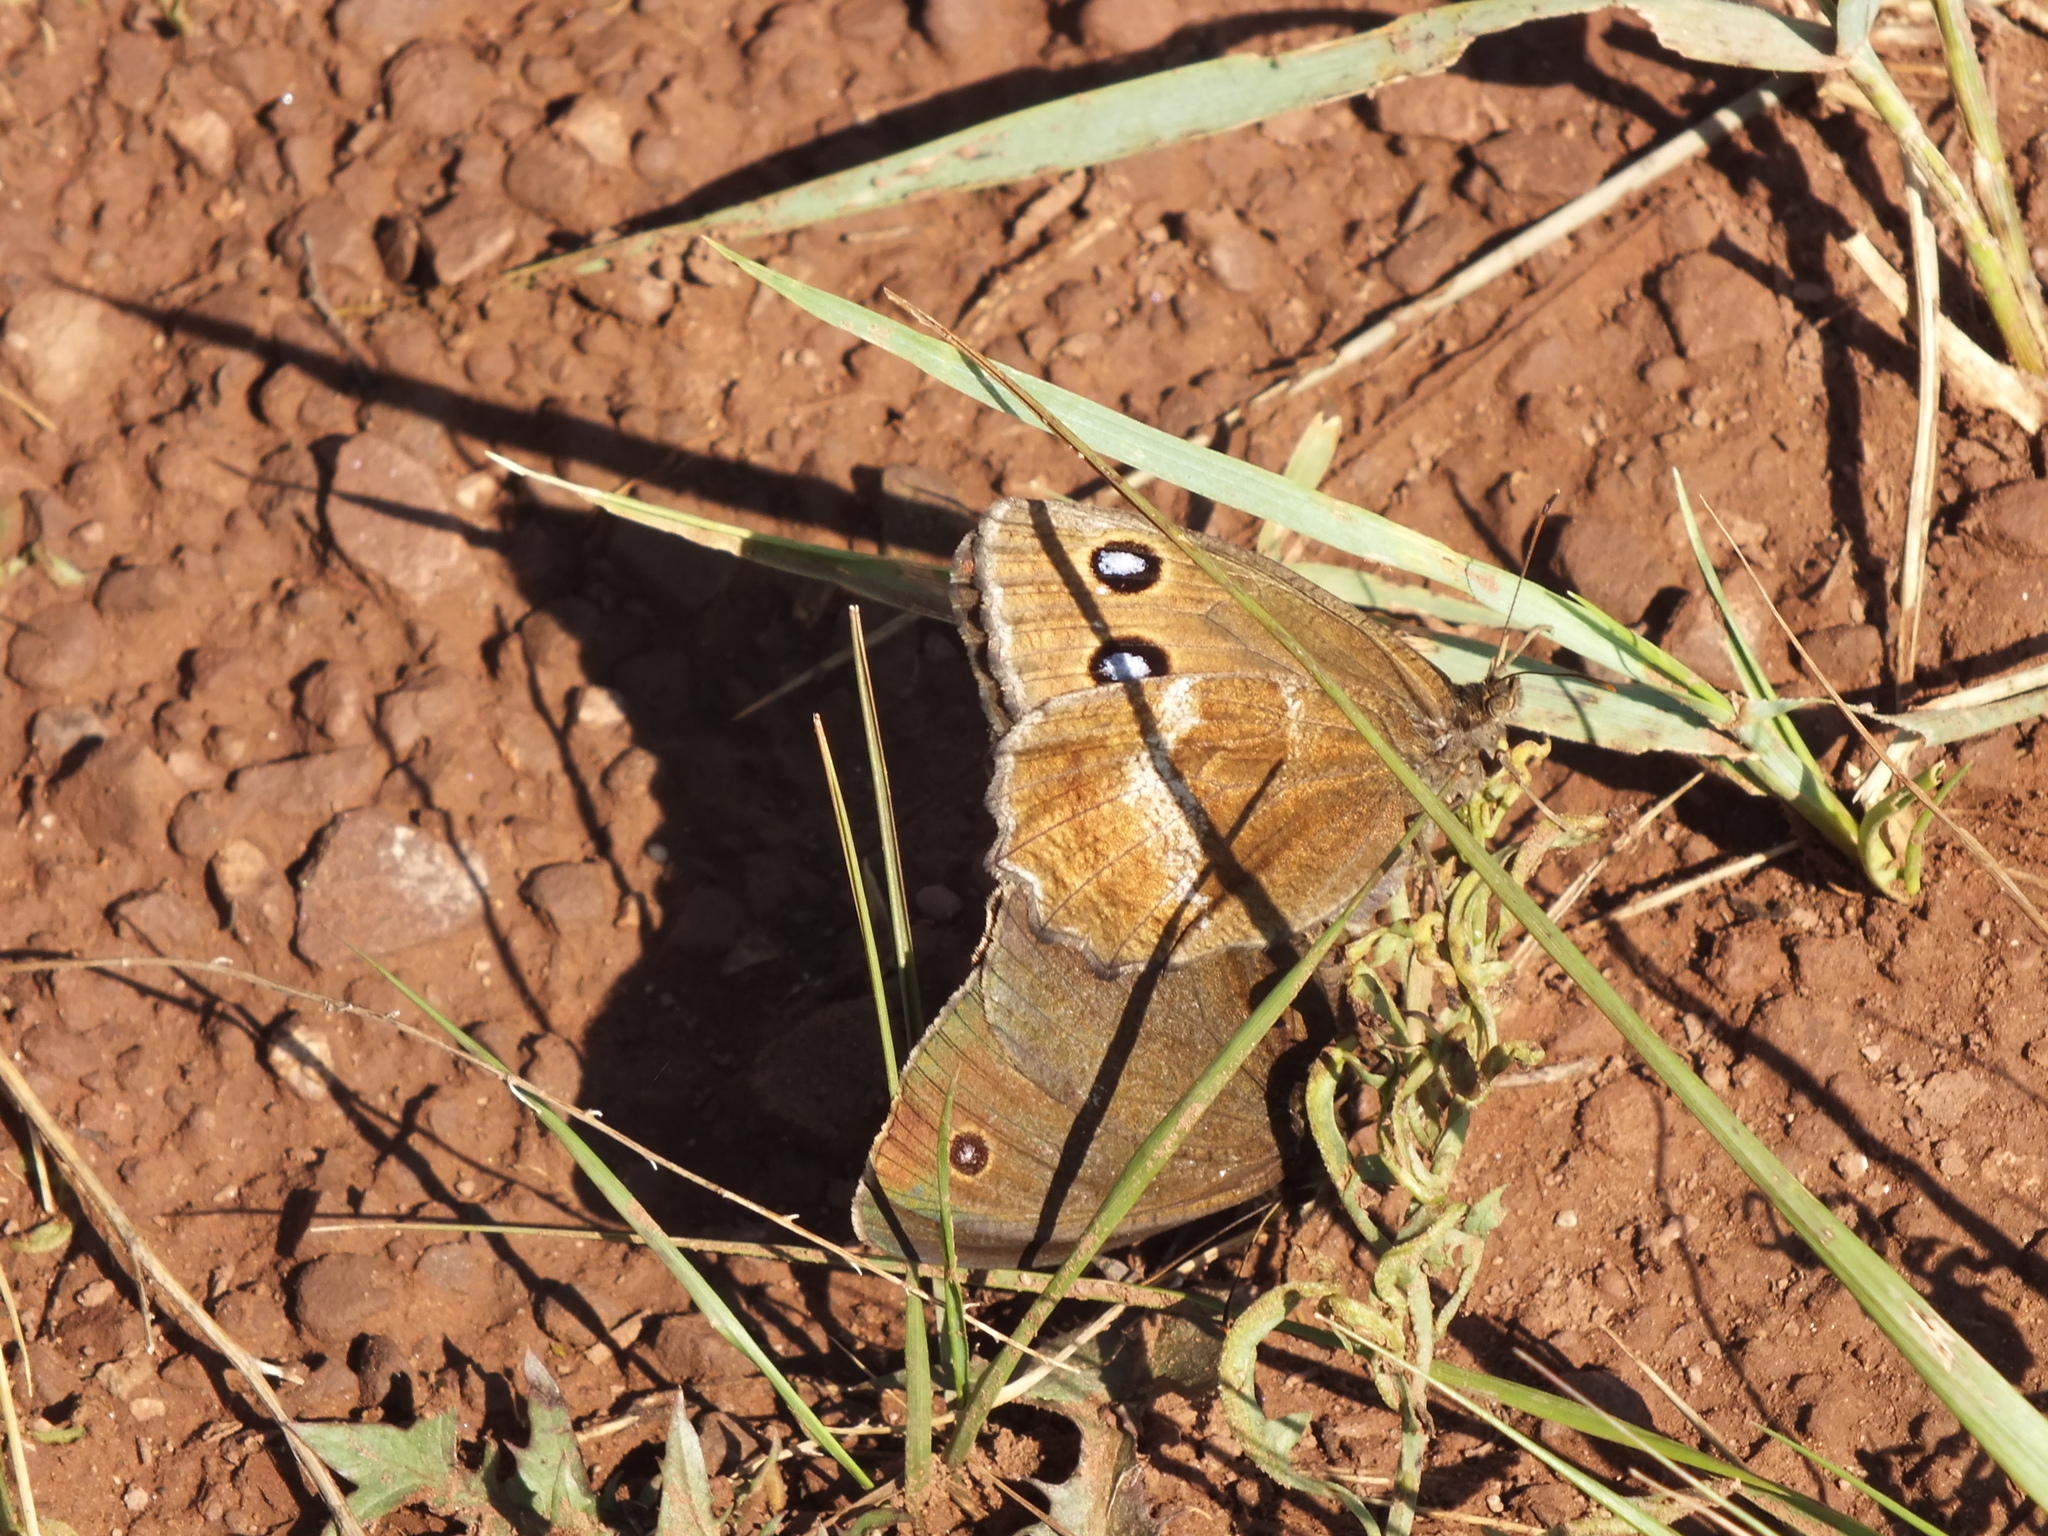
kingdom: Animalia
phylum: Arthropoda
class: Insecta
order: Lepidoptera
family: Nymphalidae
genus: Minois
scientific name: Minois dryas
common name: Dryad
